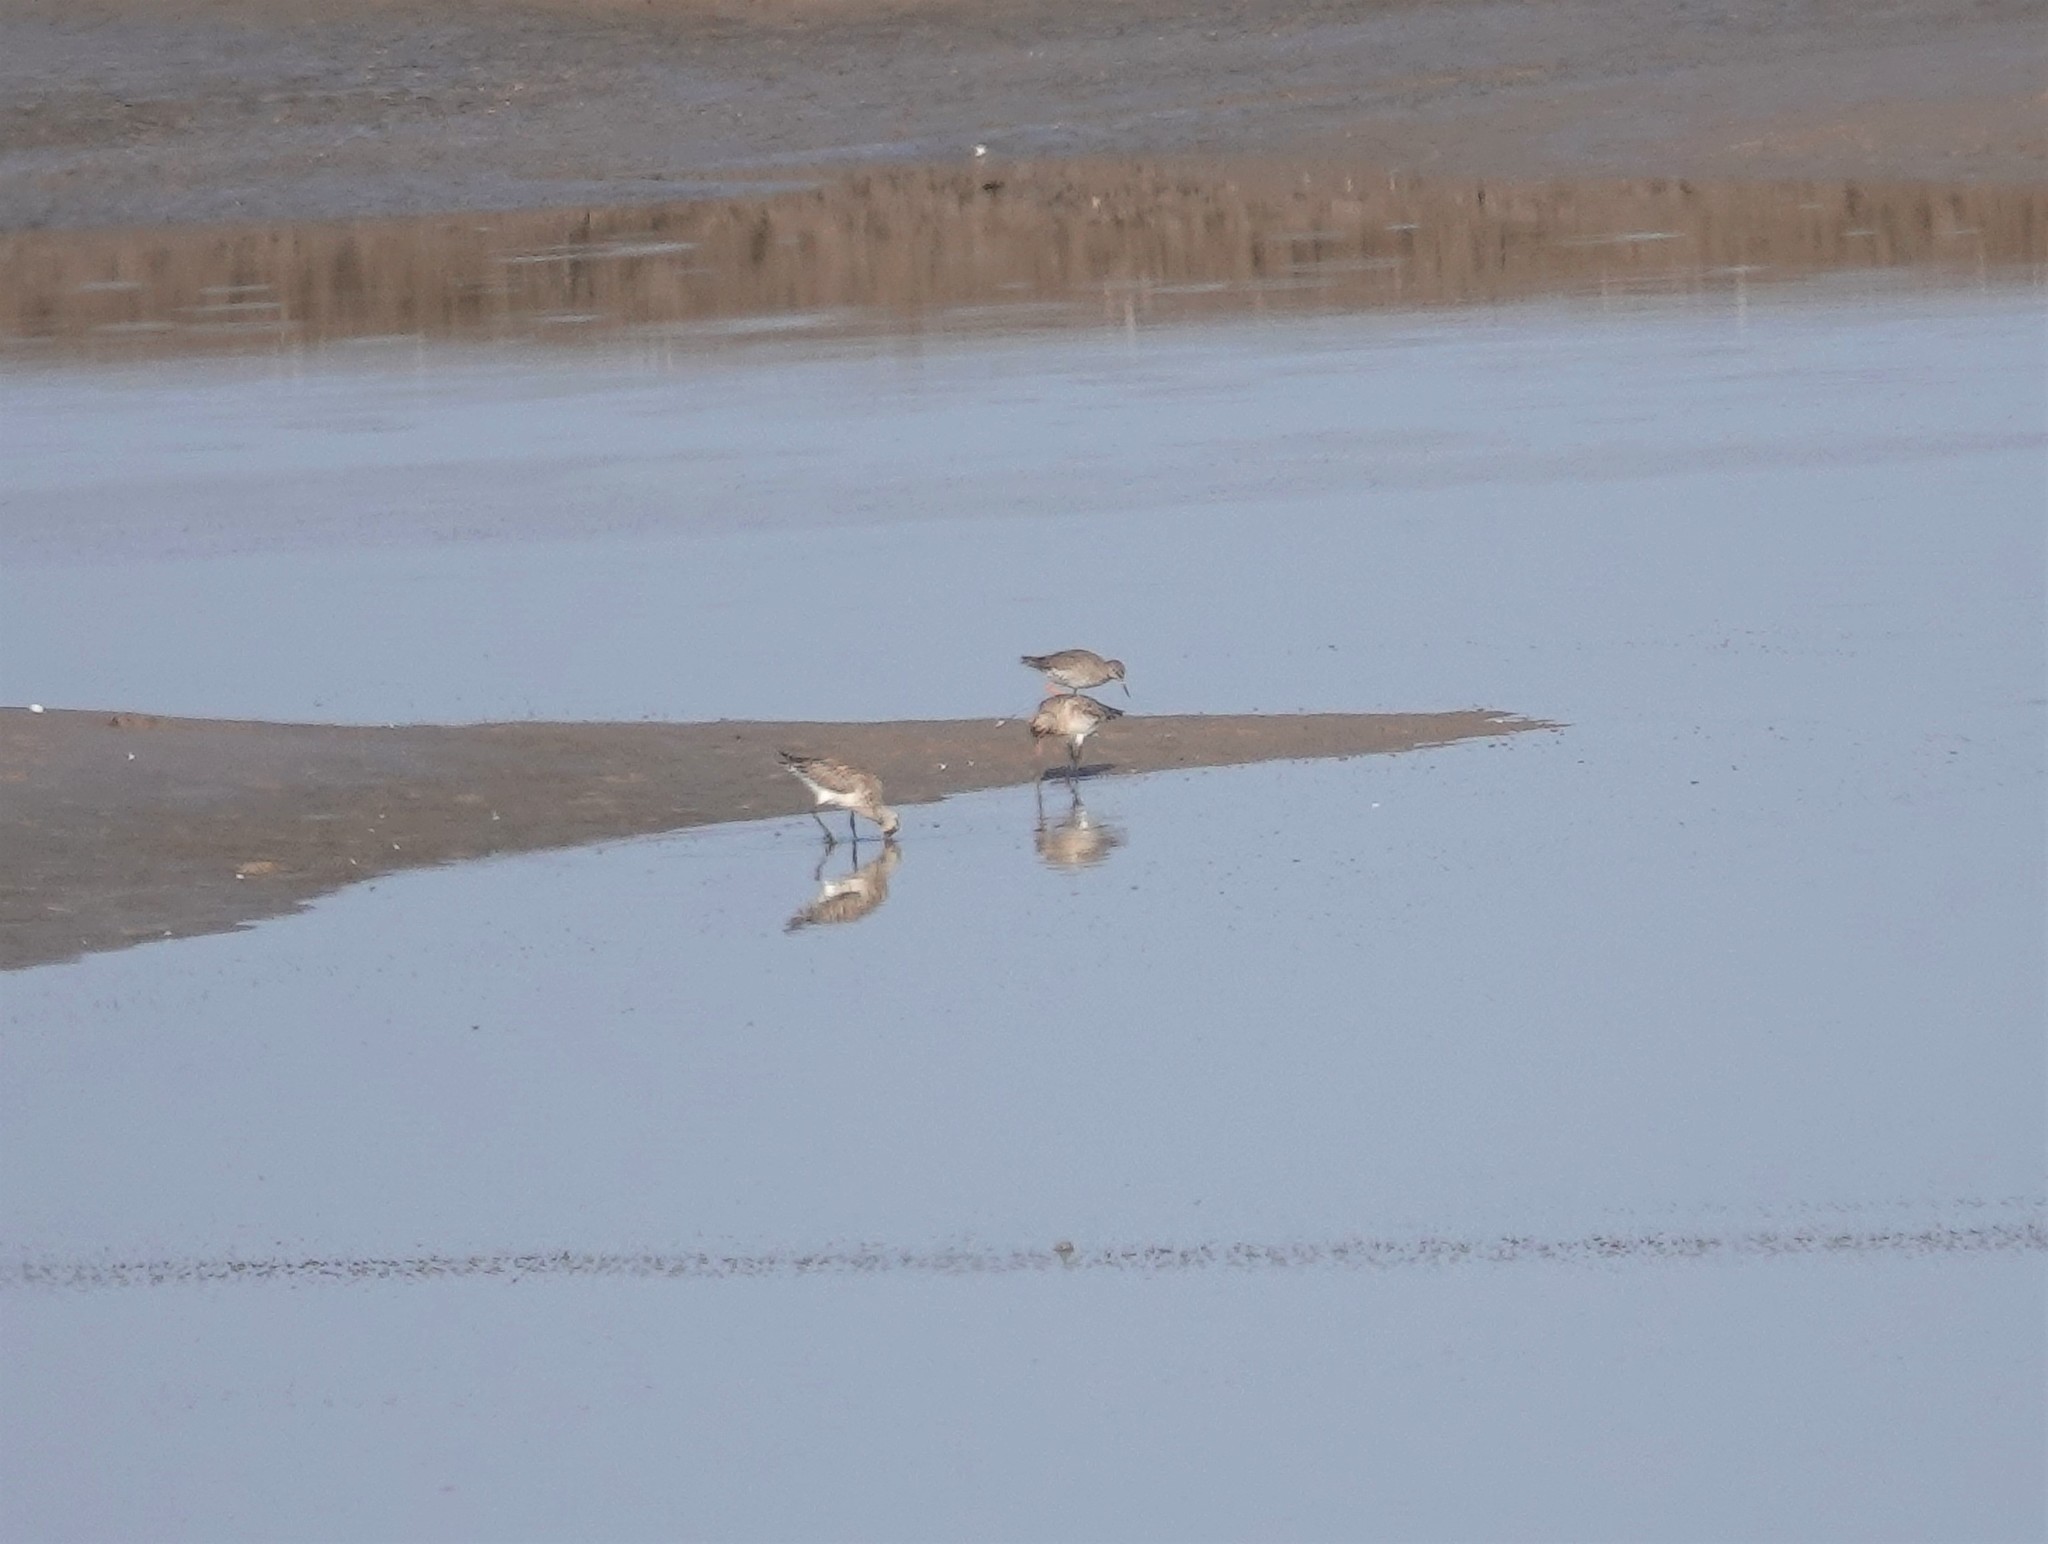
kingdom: Animalia
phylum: Chordata
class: Aves
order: Charadriiformes
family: Scolopacidae
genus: Tringa
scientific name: Tringa totanus
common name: Common redshank
